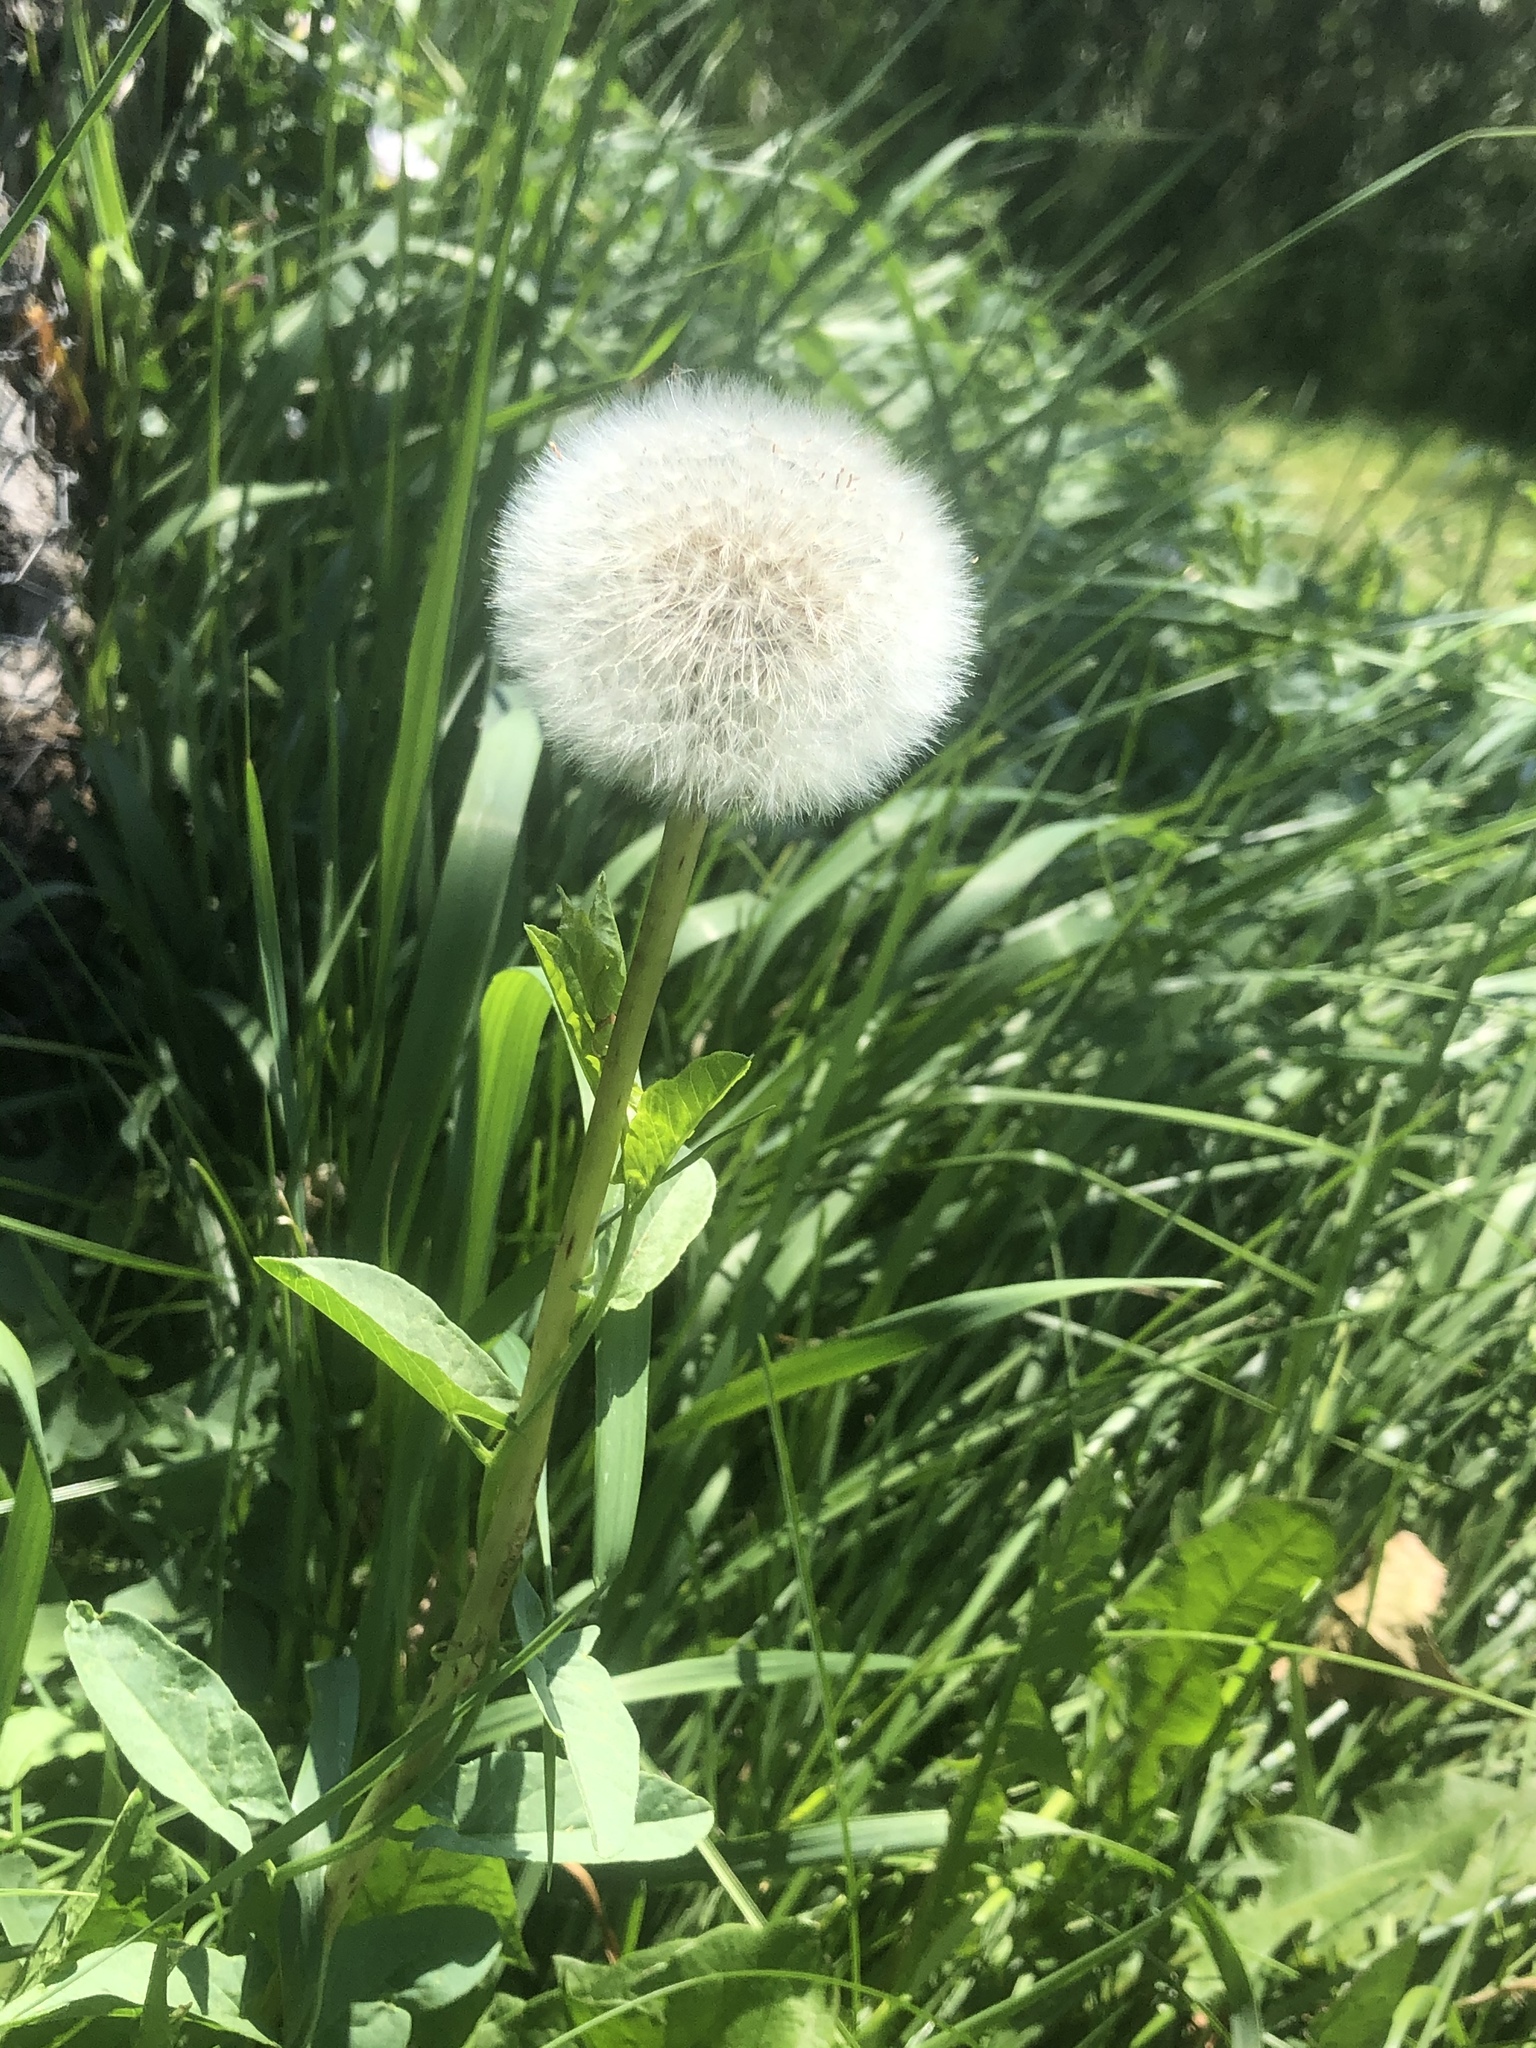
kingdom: Plantae
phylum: Tracheophyta
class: Magnoliopsida
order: Asterales
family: Asteraceae
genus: Taraxacum
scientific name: Taraxacum officinale
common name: Common dandelion
